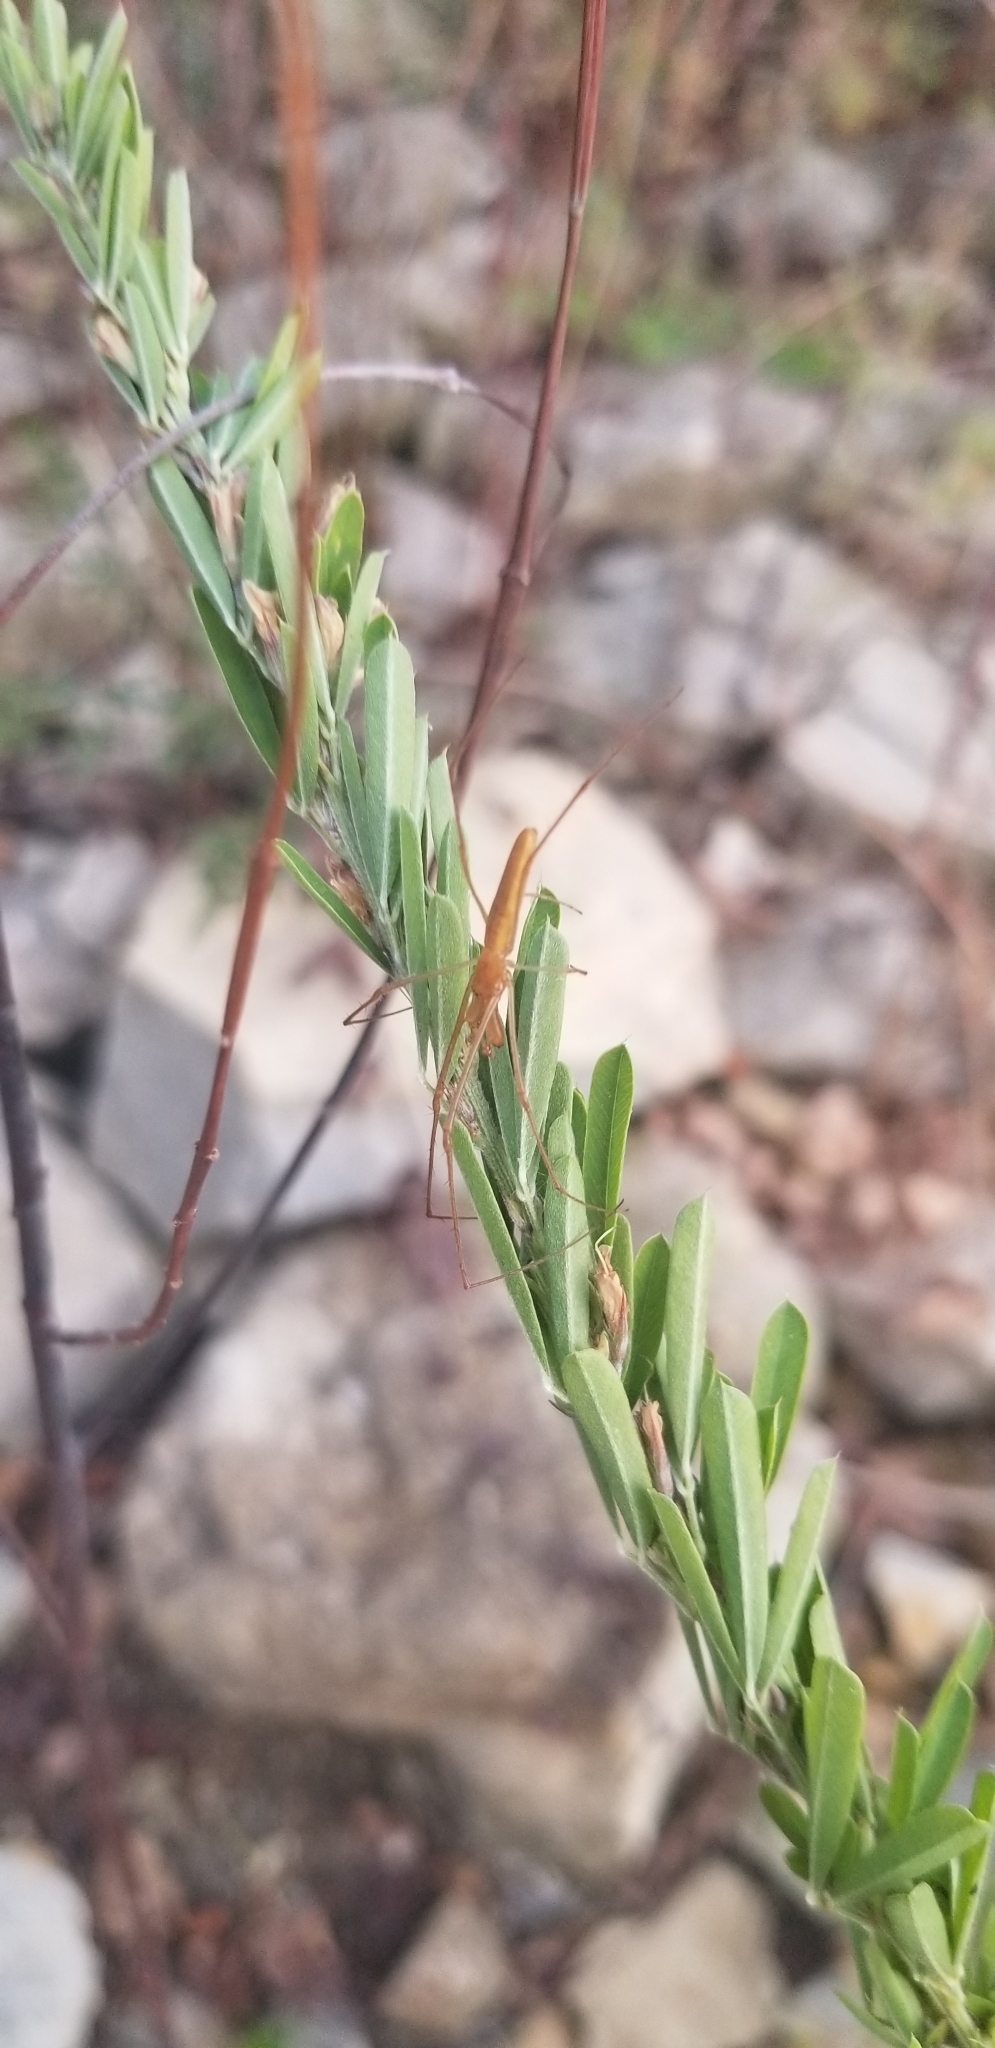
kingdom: Animalia
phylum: Arthropoda
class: Arachnida
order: Araneae
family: Tetragnathidae
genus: Tetragnatha
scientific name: Tetragnatha
